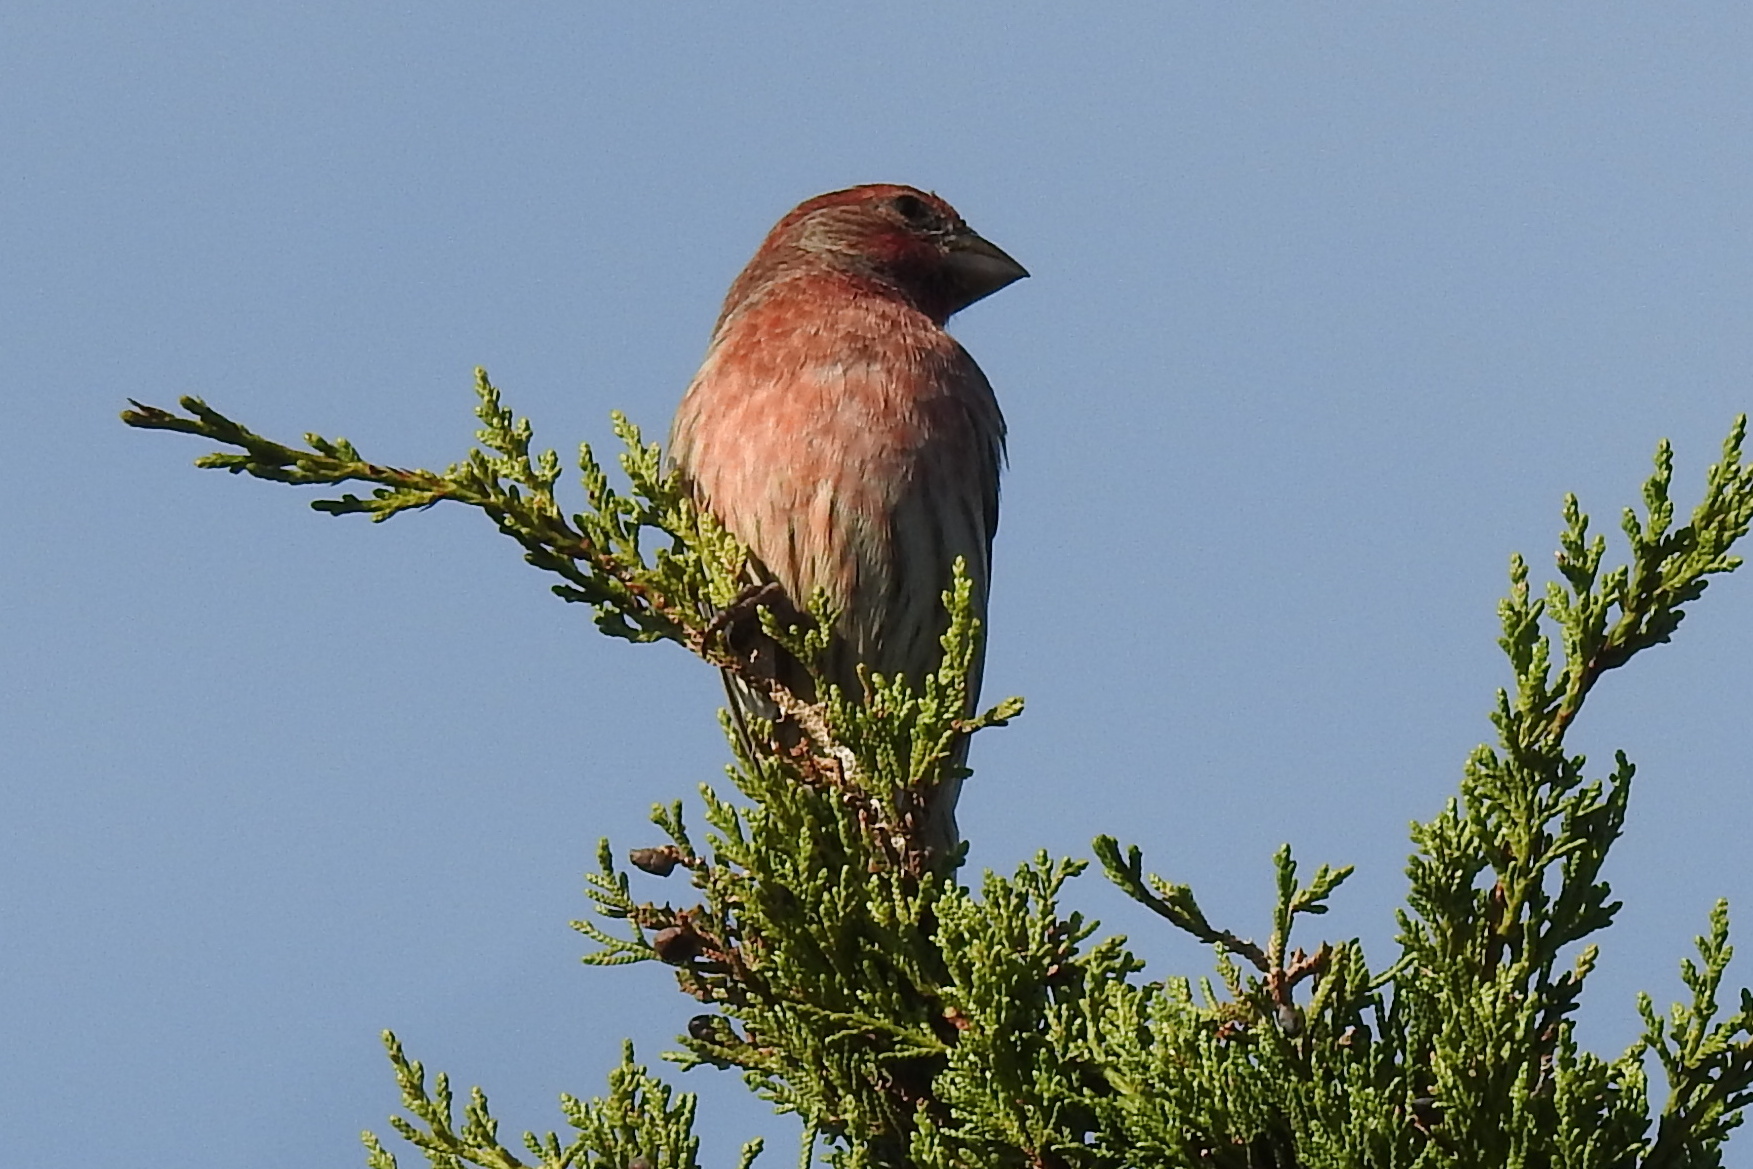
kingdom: Animalia
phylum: Chordata
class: Aves
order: Passeriformes
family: Fringillidae
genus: Haemorhous
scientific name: Haemorhous mexicanus
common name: House finch
